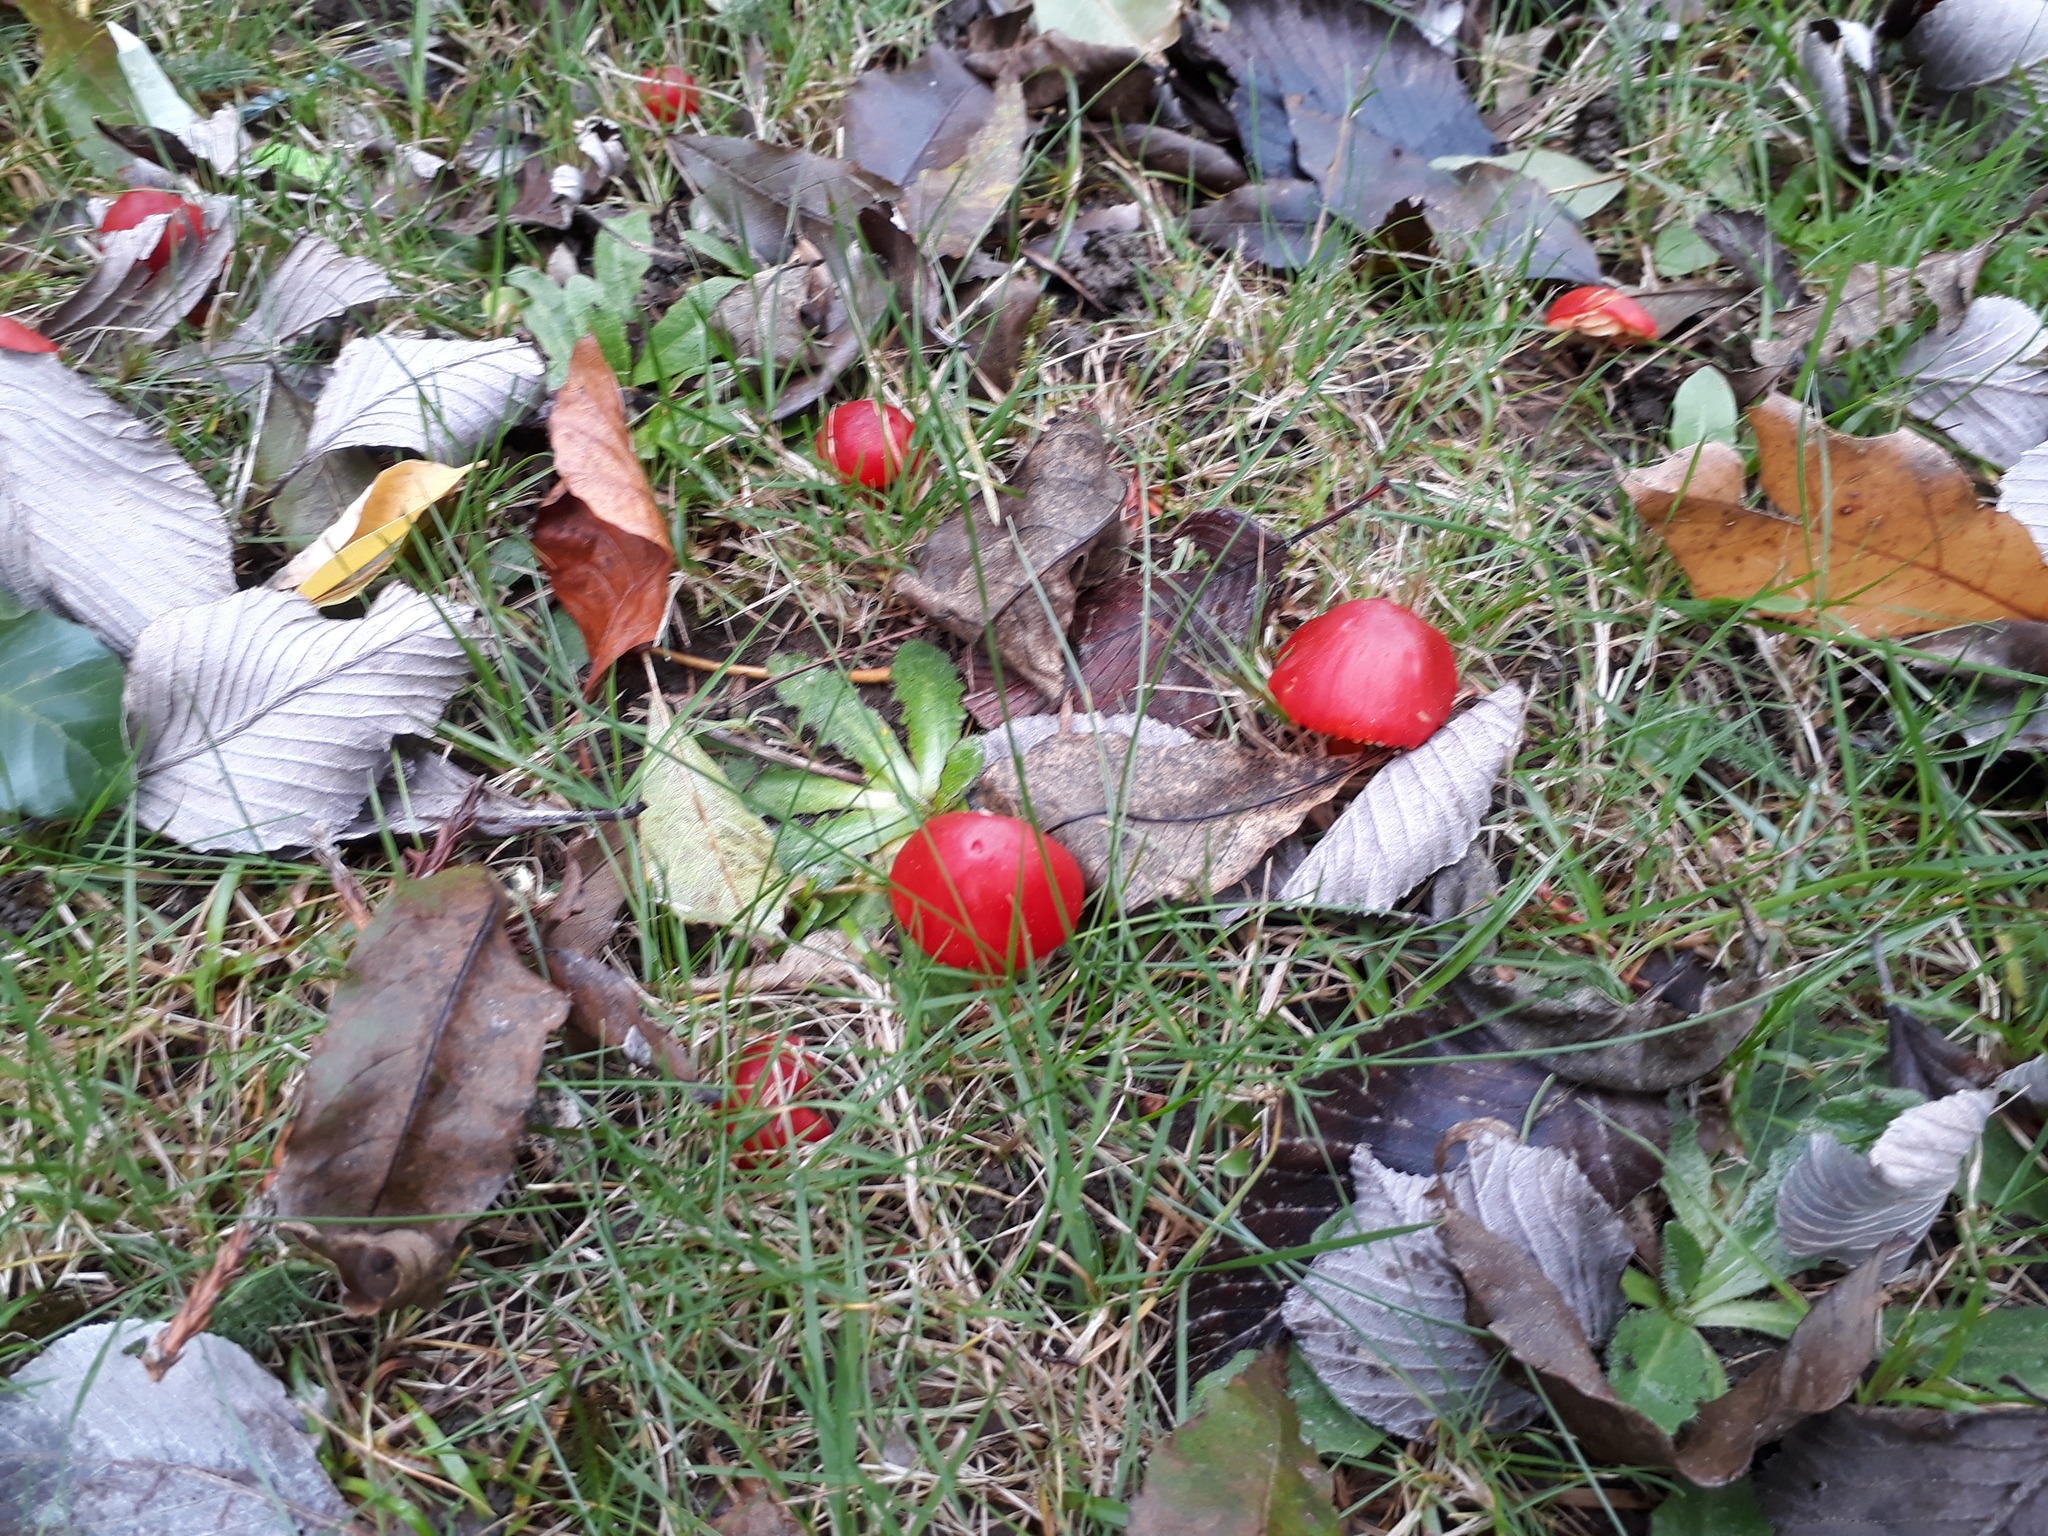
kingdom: Fungi
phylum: Basidiomycota
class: Agaricomycetes
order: Agaricales
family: Hygrophoraceae
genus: Hygrocybe
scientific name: Hygrocybe coccinea
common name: Scarlet hood
